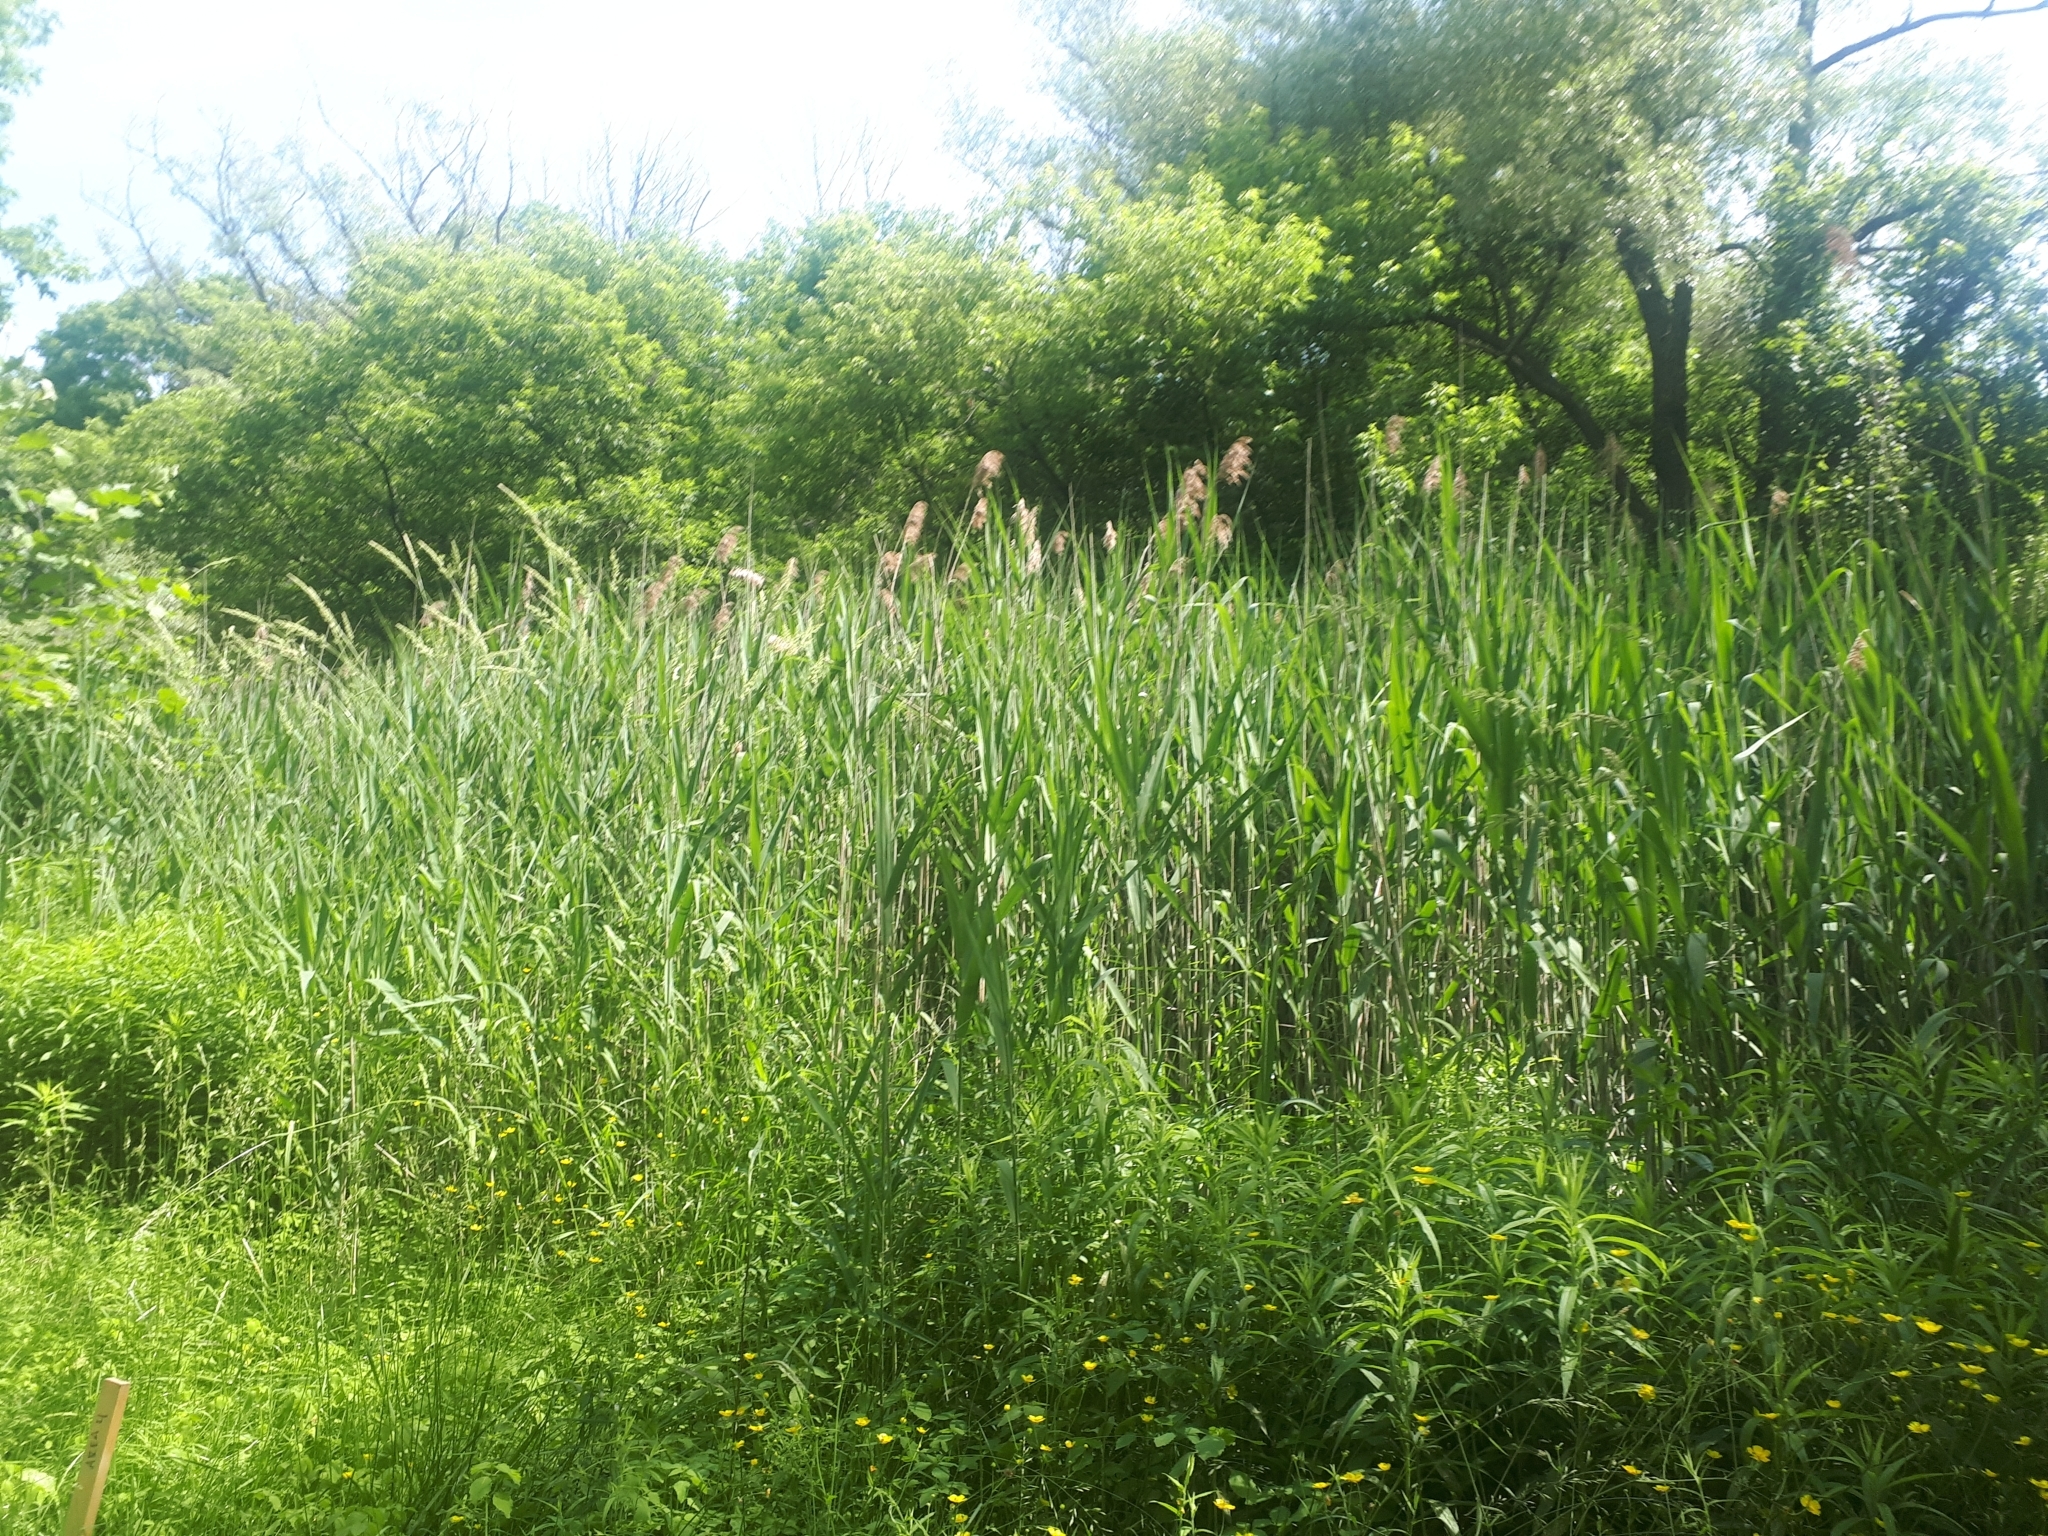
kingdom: Plantae
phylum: Tracheophyta
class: Liliopsida
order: Poales
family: Poaceae
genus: Phragmites
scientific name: Phragmites australis
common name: Common reed
